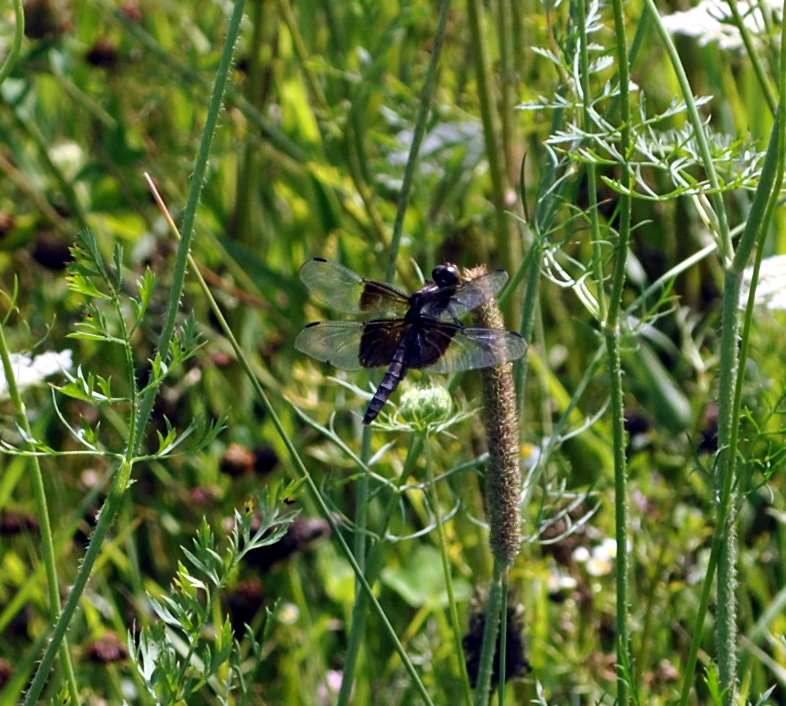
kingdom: Animalia
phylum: Arthropoda
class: Insecta
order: Odonata
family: Libellulidae
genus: Libellula
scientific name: Libellula luctuosa
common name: Widow skimmer
